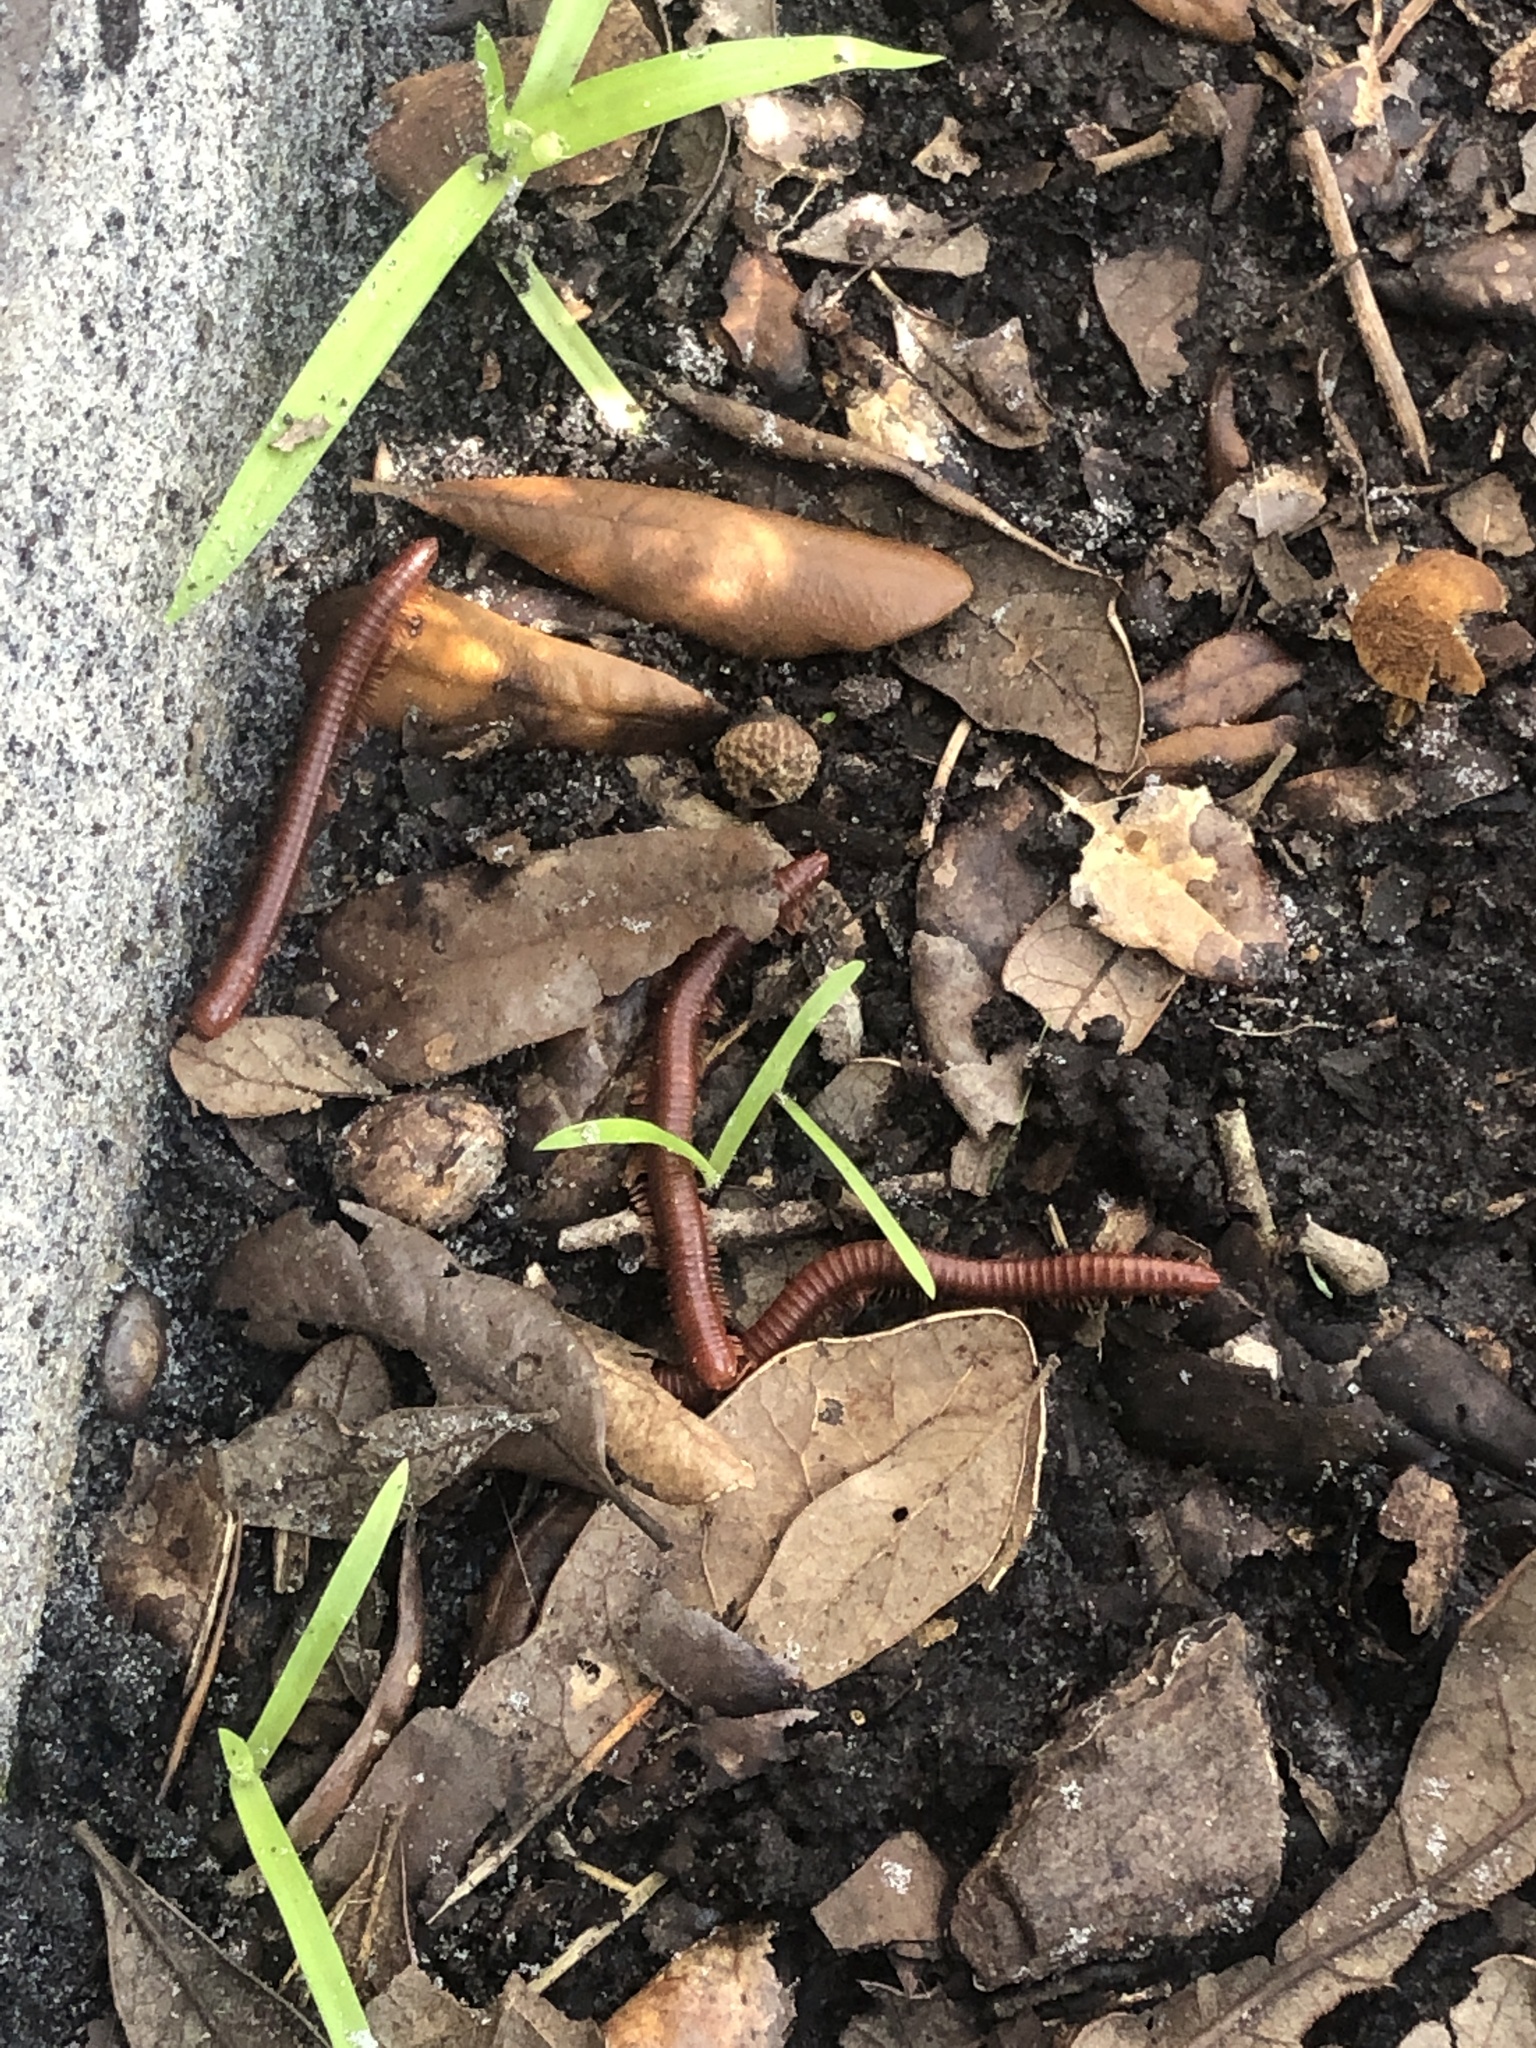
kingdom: Animalia
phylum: Arthropoda
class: Diplopoda
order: Spirobolida
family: Pachybolidae
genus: Trigoniulus
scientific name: Trigoniulus corallinus
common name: Millipede
